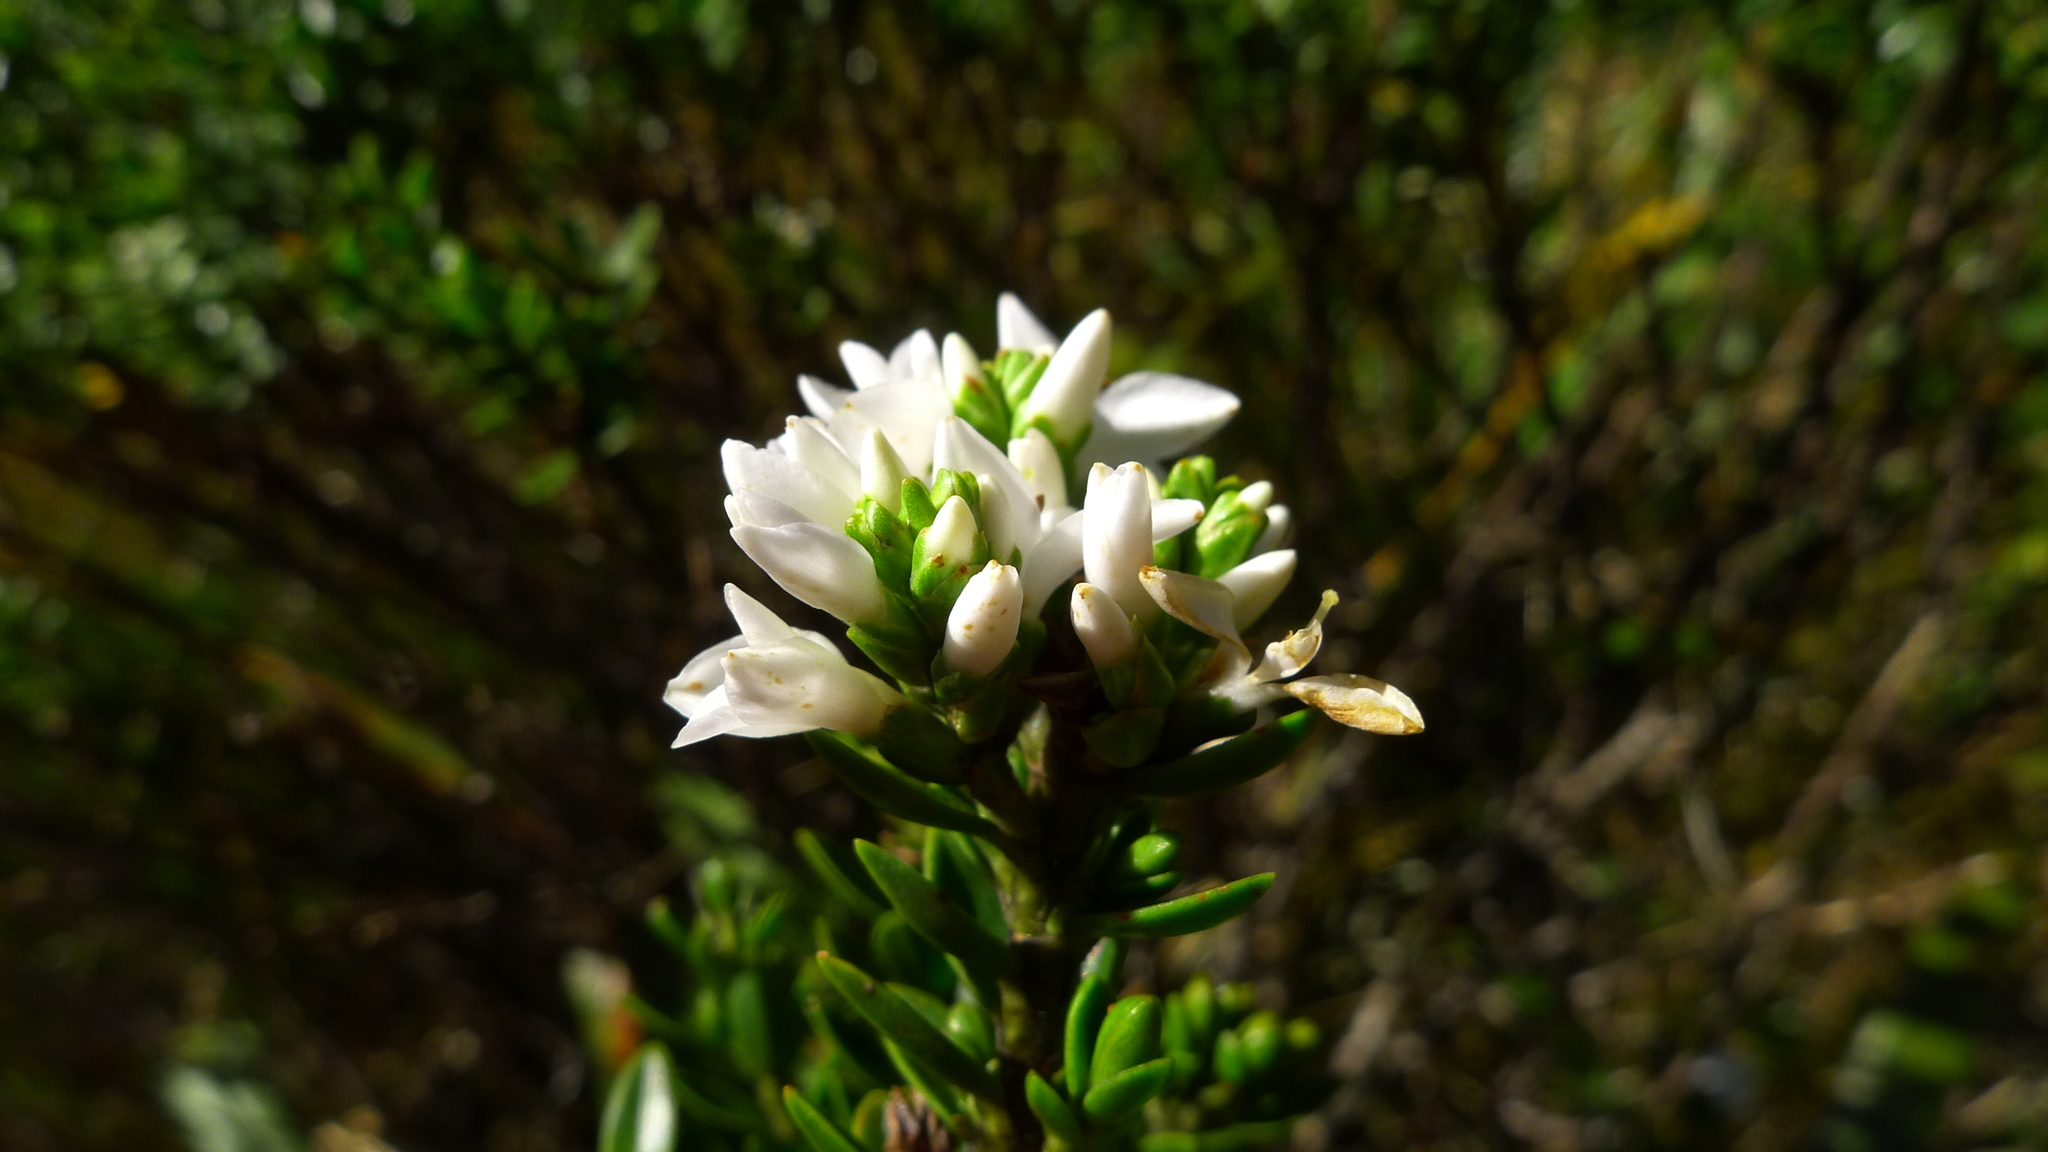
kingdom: Plantae
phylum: Tracheophyta
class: Magnoliopsida
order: Lamiales
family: Plantaginaceae
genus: Veronica
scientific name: Veronica odora
